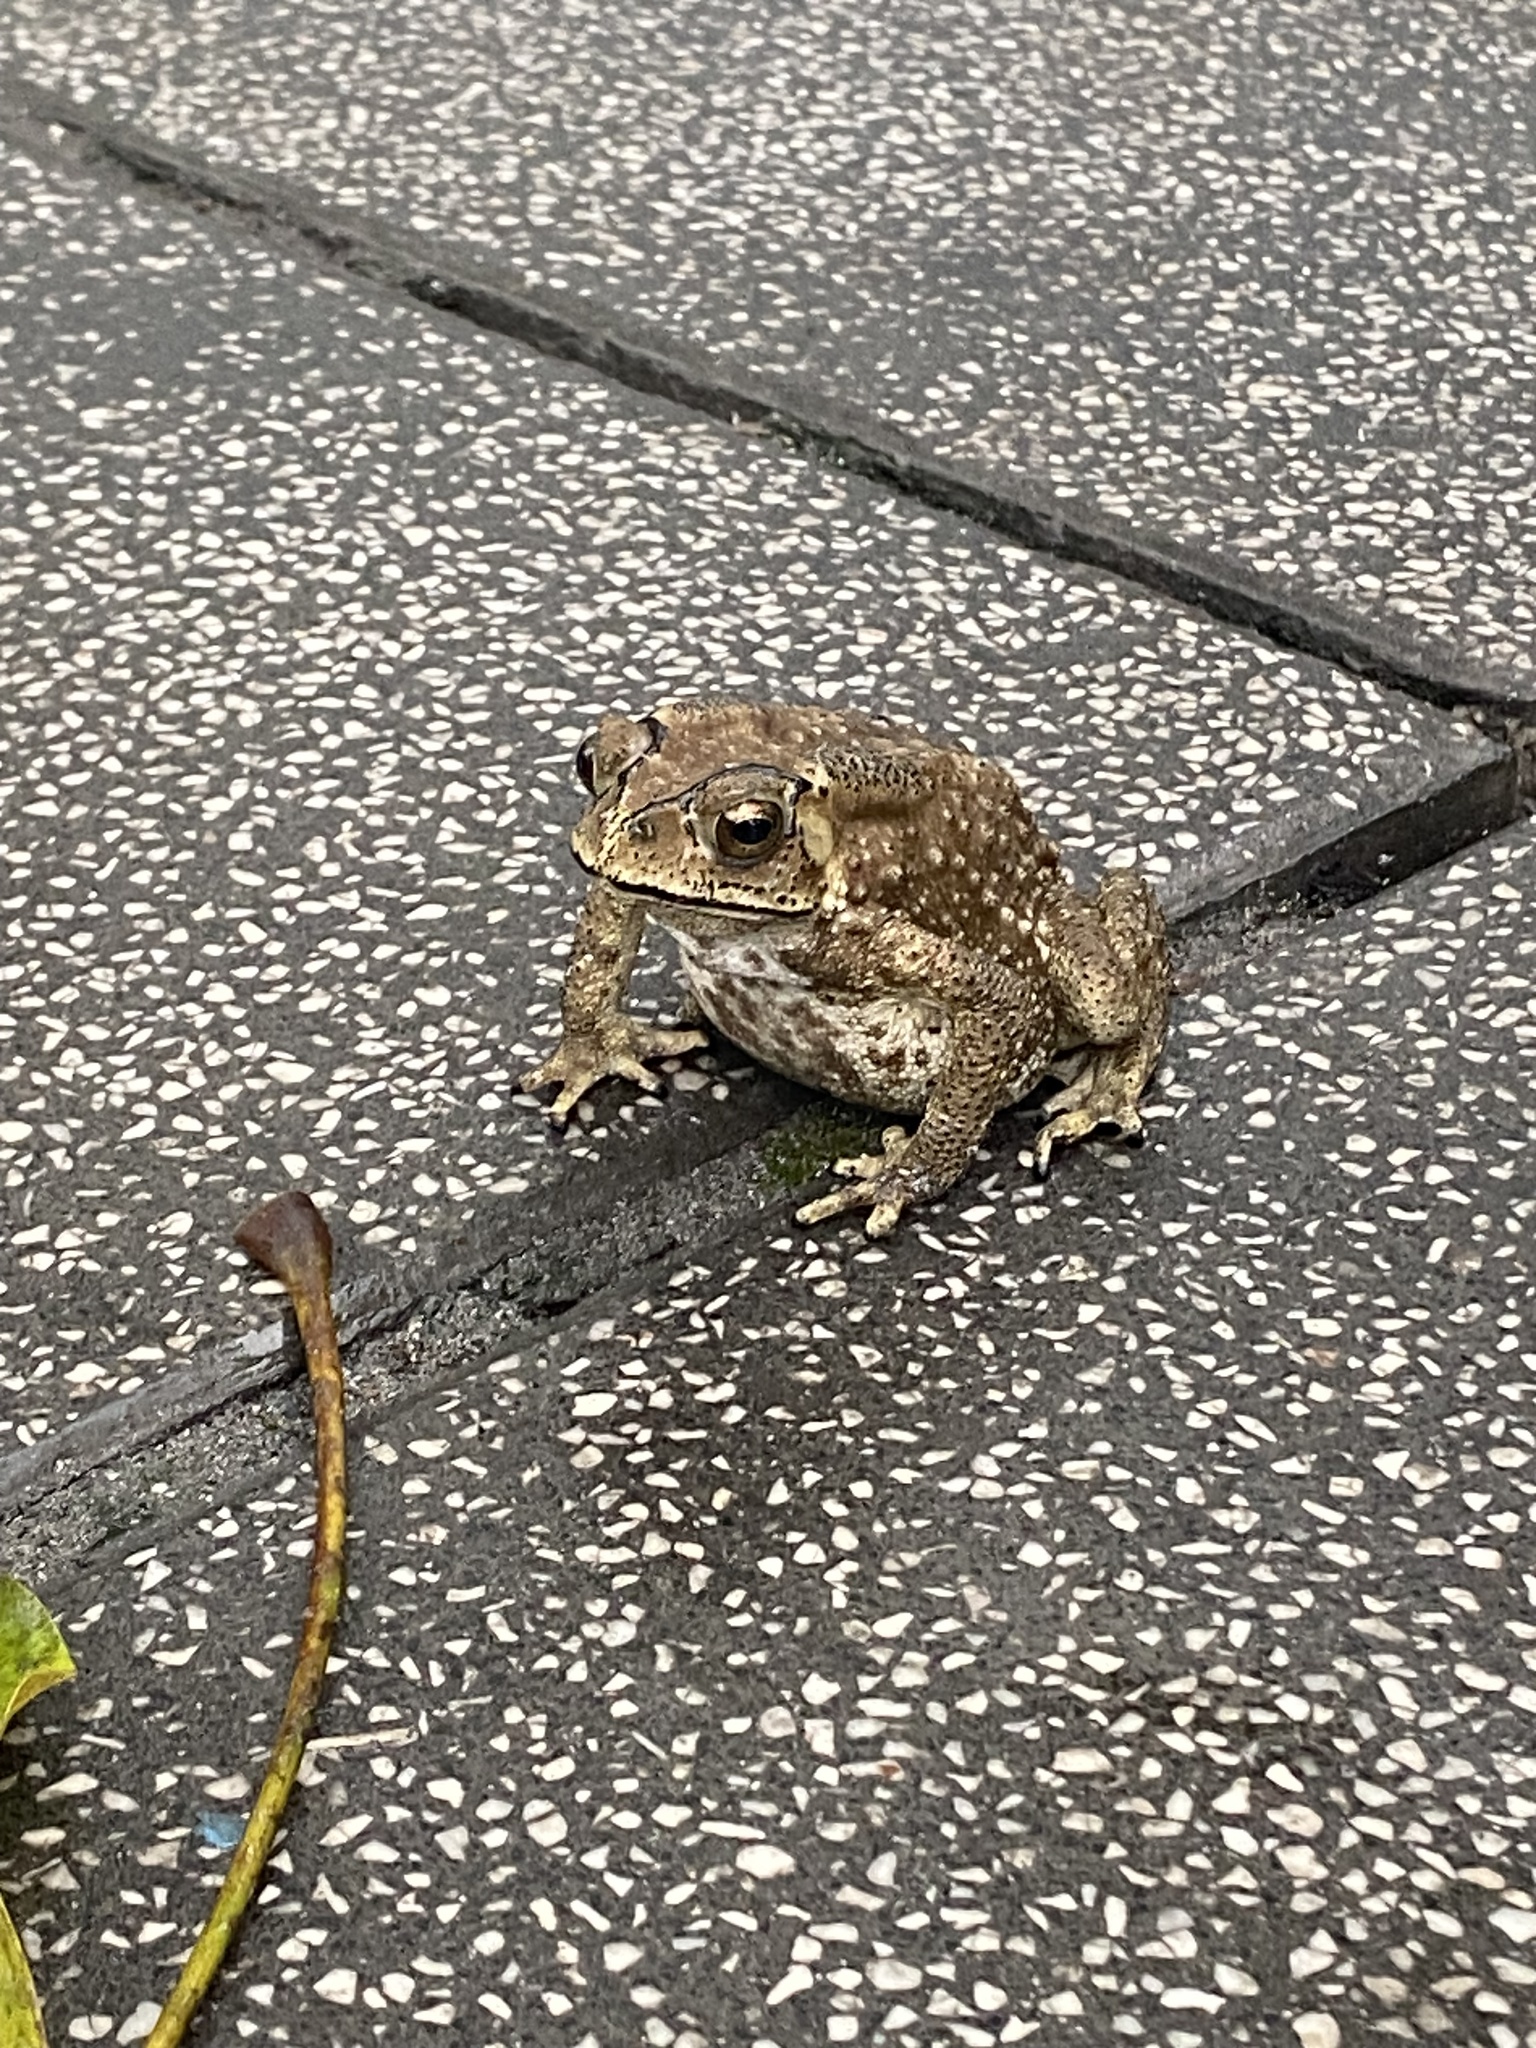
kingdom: Animalia
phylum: Chordata
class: Amphibia
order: Anura
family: Bufonidae
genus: Duttaphrynus
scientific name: Duttaphrynus melanostictus
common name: Common sunda toad
